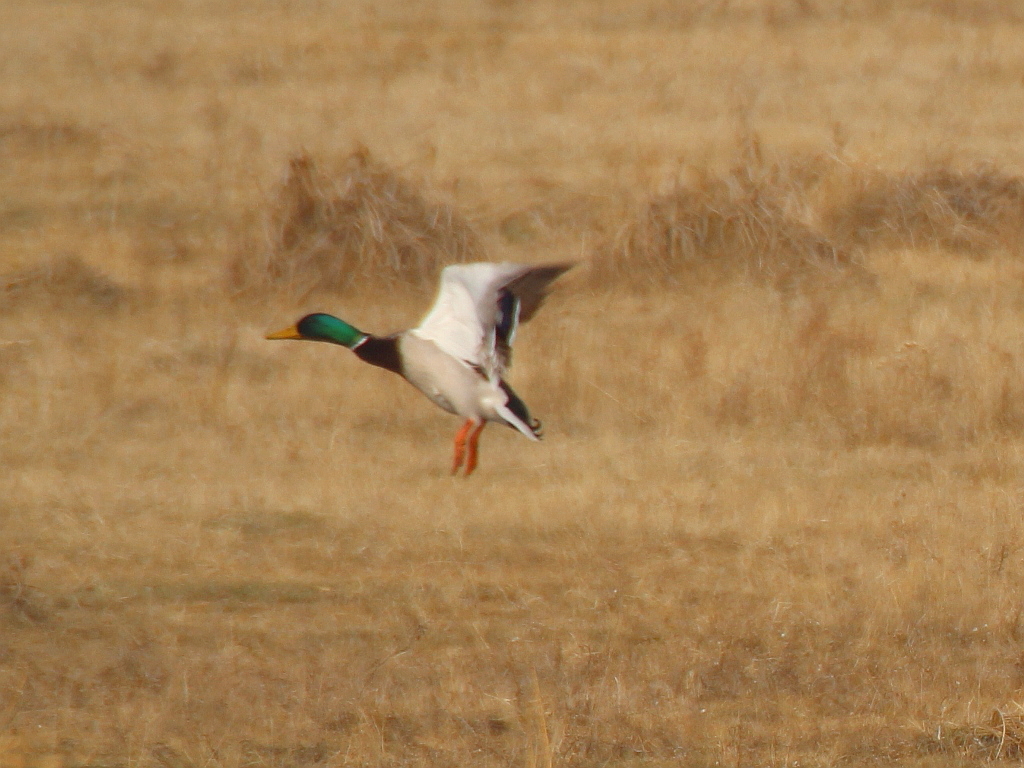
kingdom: Animalia
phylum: Chordata
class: Aves
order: Anseriformes
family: Anatidae
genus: Anas
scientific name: Anas platyrhynchos
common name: Mallard
